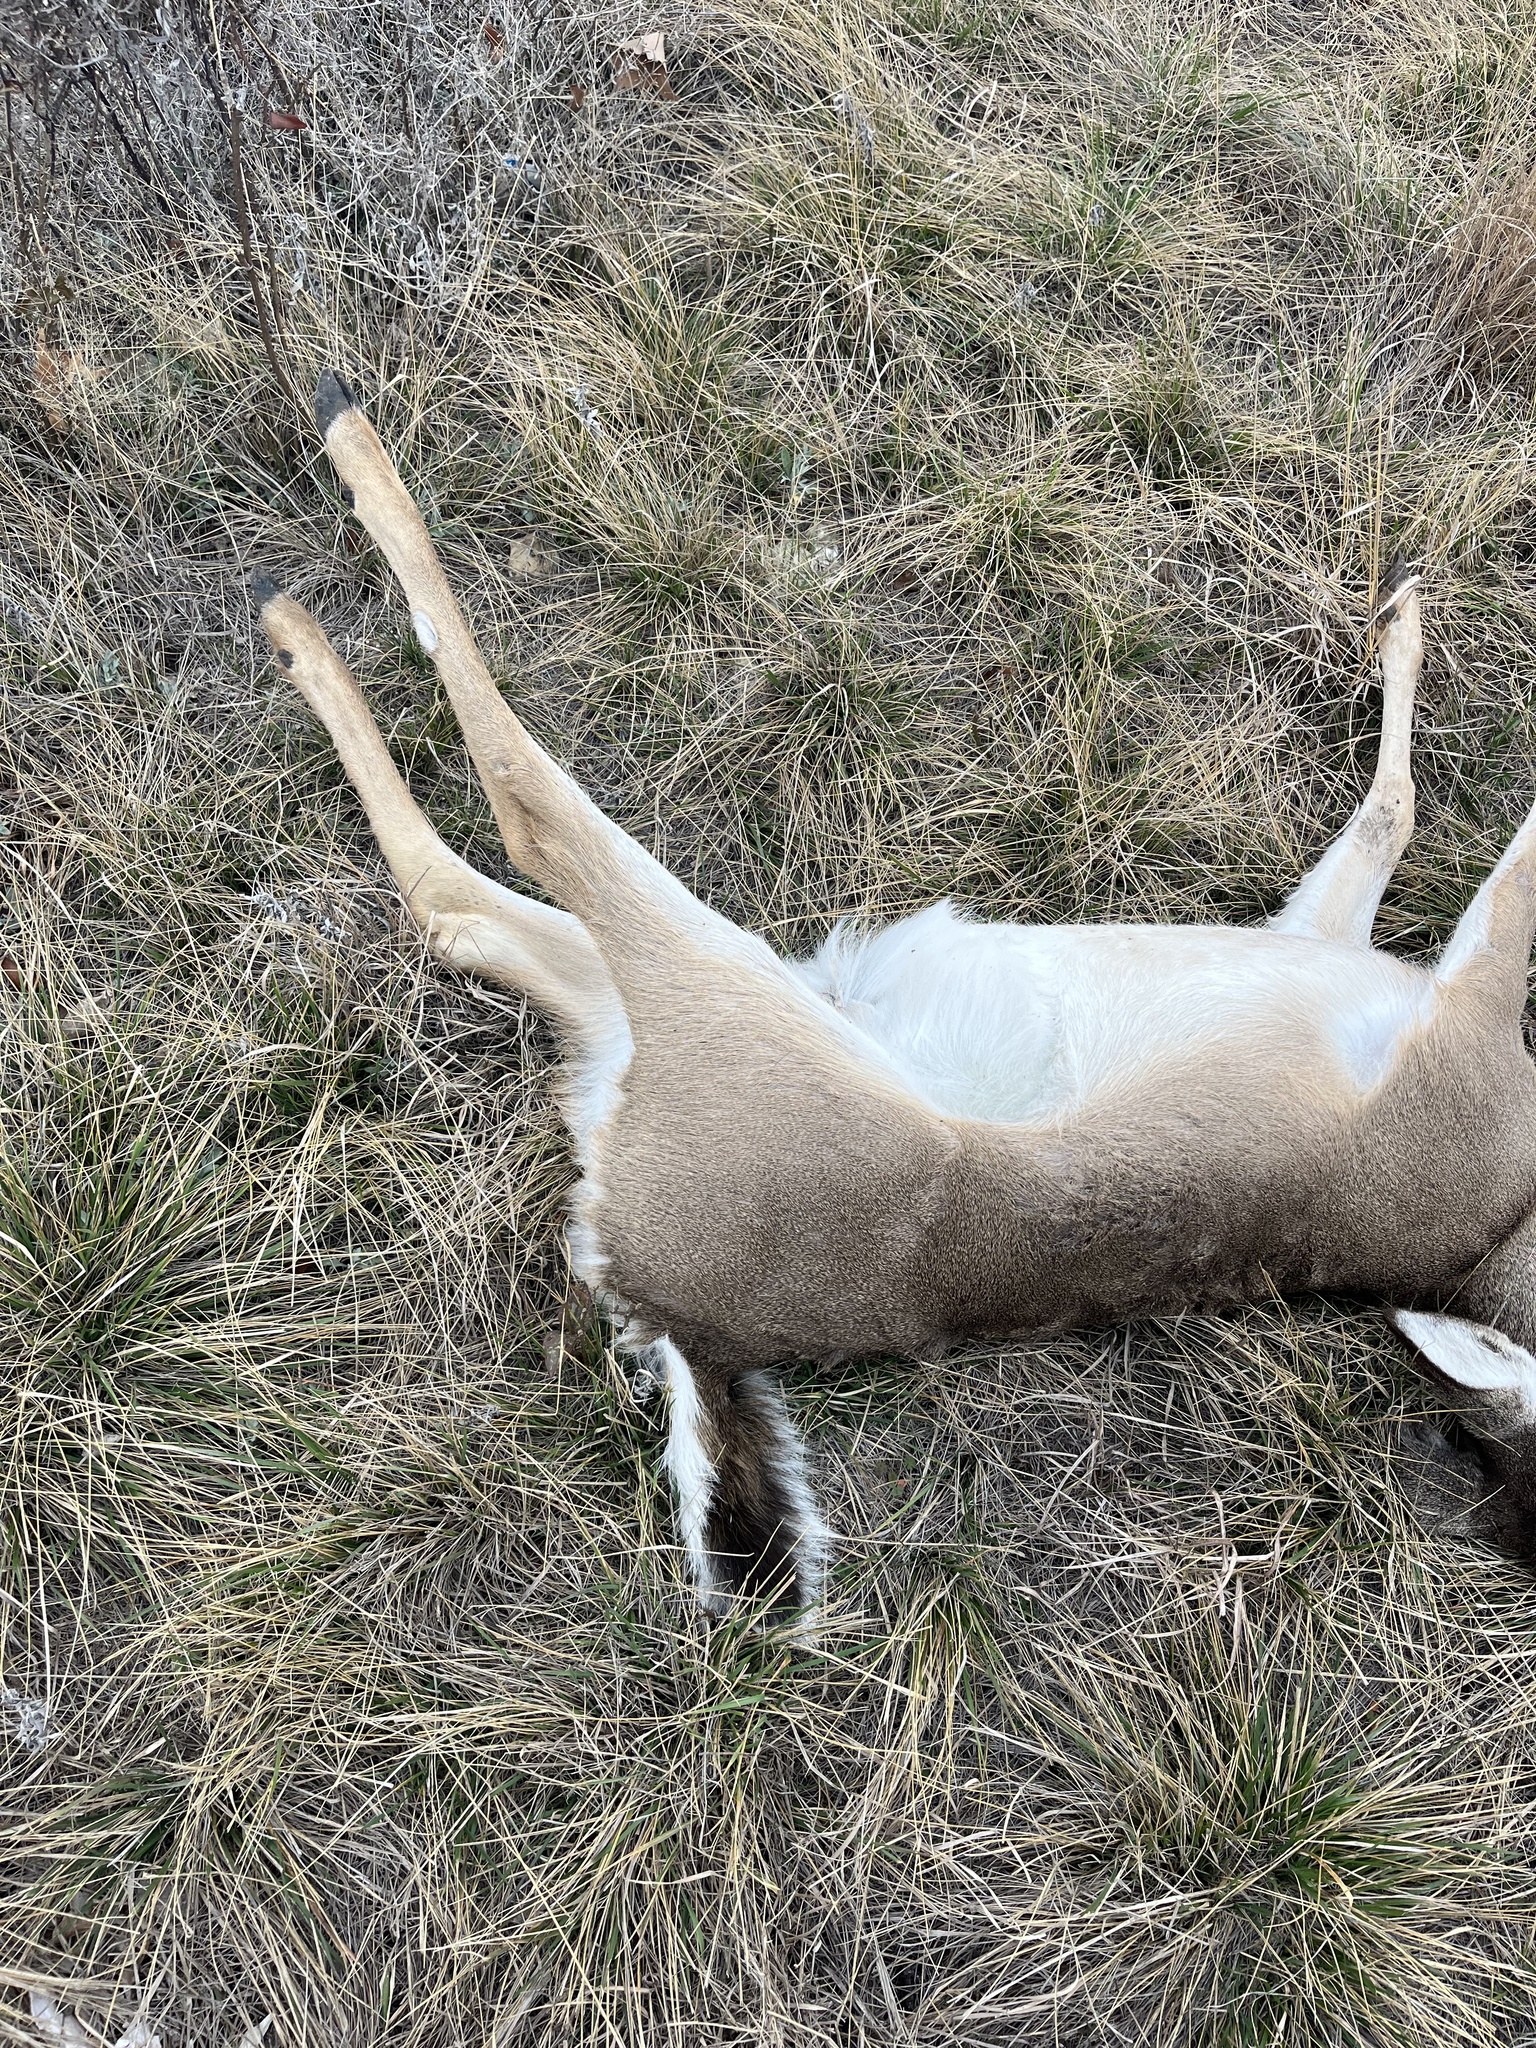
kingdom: Animalia
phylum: Chordata
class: Mammalia
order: Artiodactyla
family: Cervidae
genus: Odocoileus
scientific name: Odocoileus virginianus
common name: White-tailed deer
